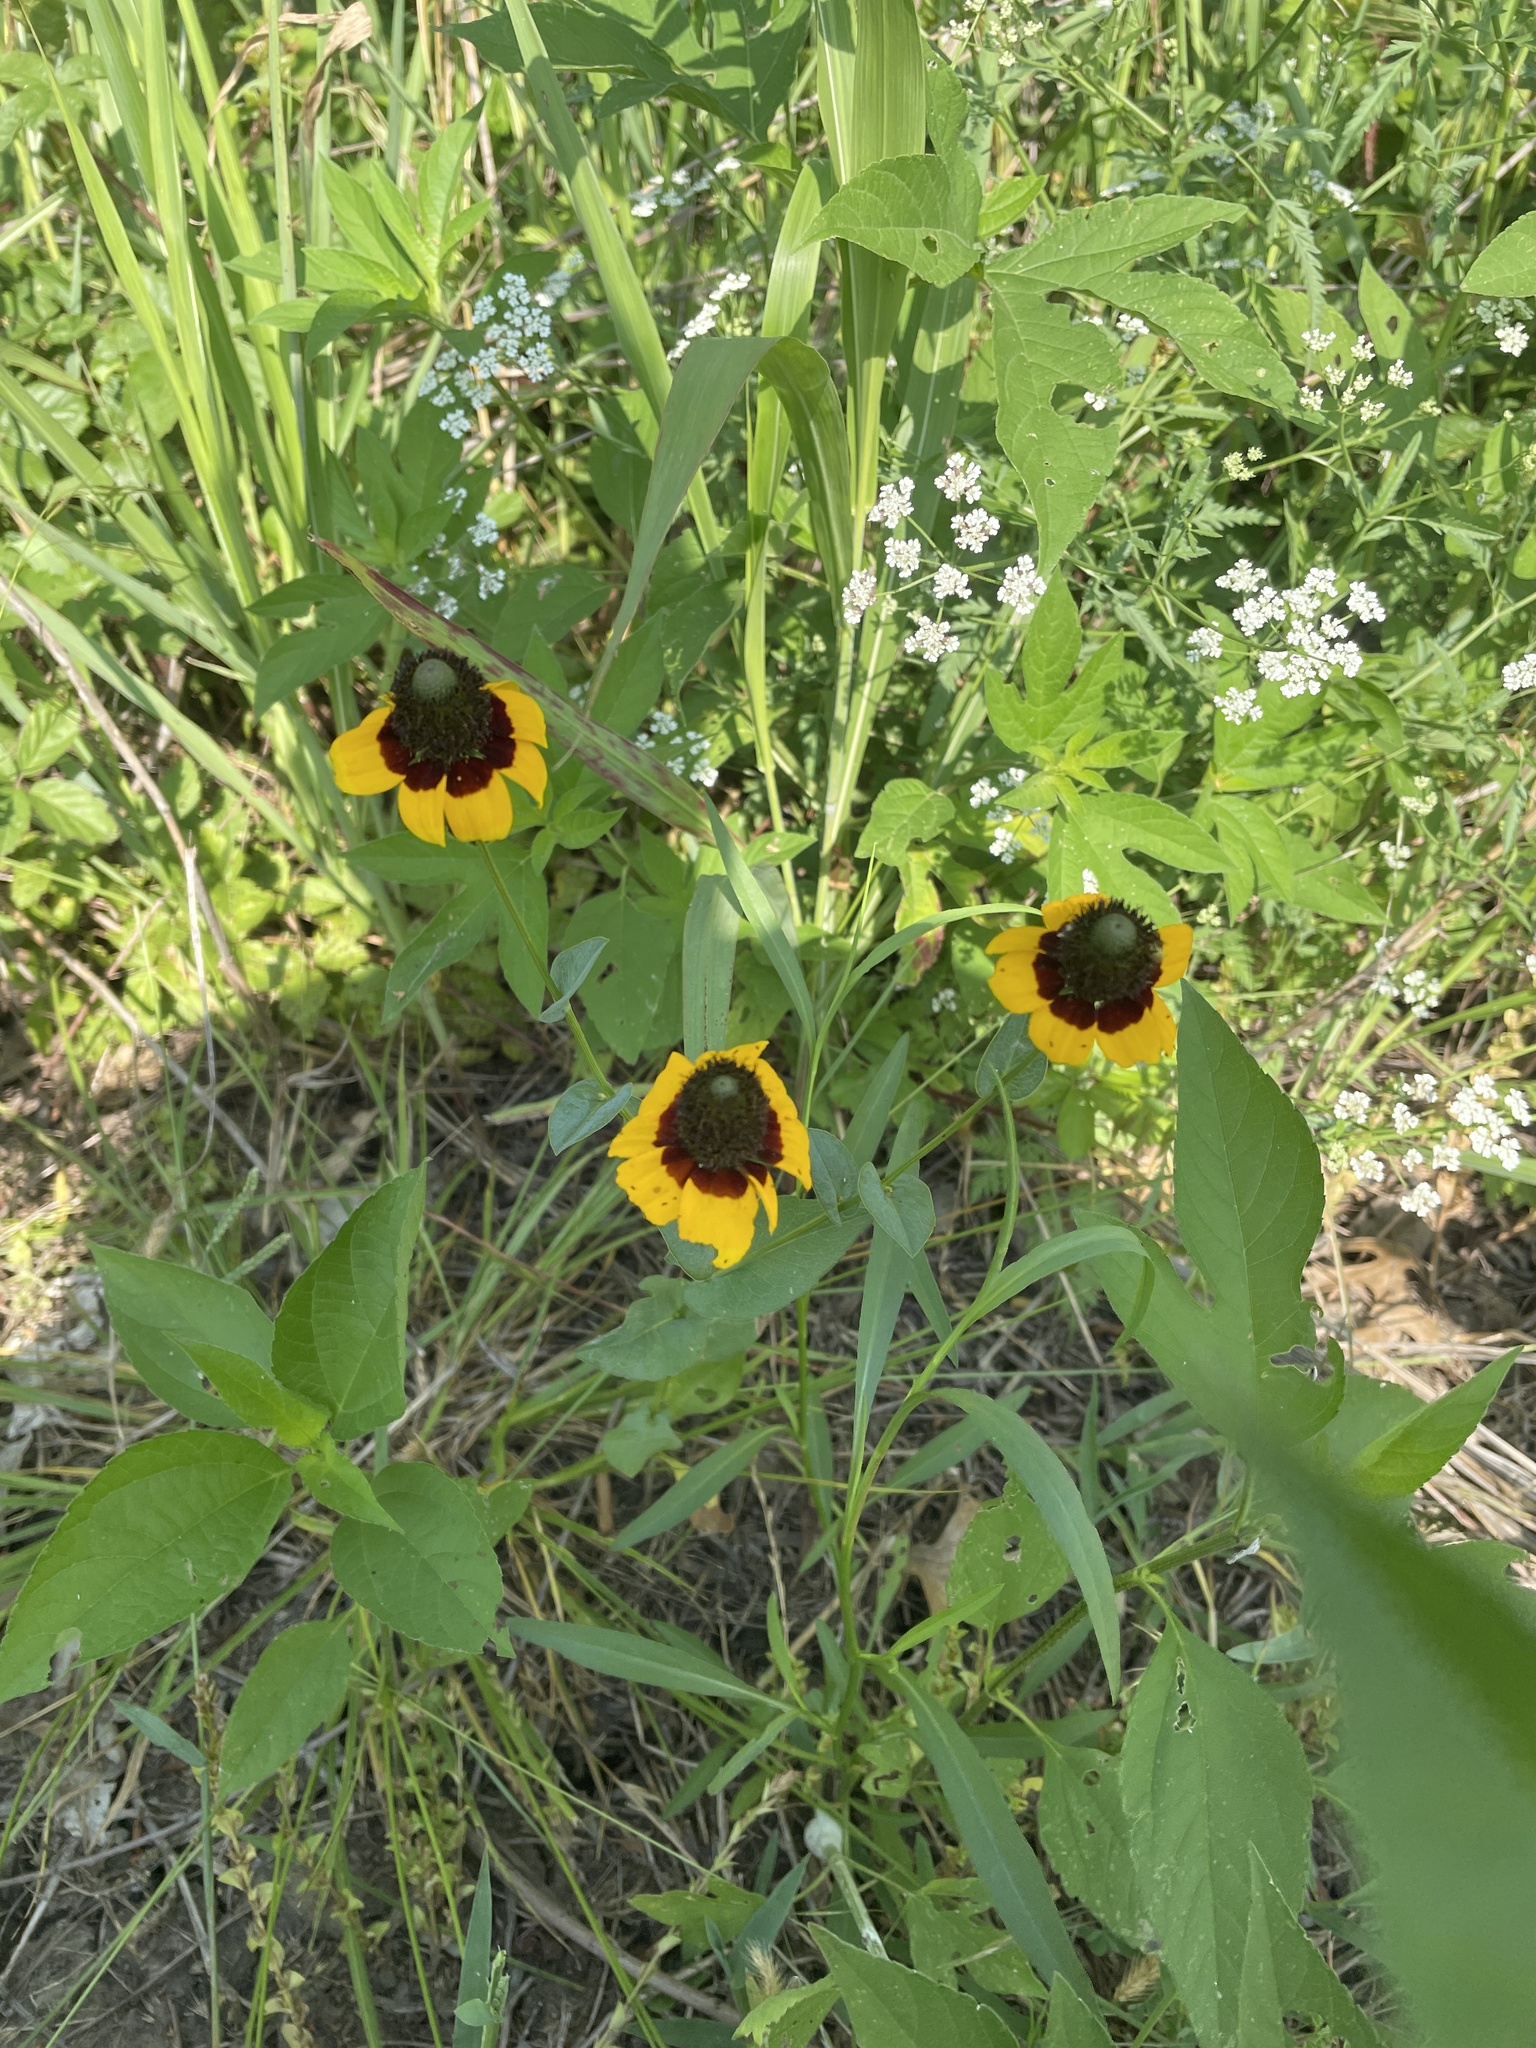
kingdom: Plantae
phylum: Tracheophyta
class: Magnoliopsida
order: Asterales
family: Asteraceae
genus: Rudbeckia
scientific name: Rudbeckia amplexicaulis
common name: Clasping-leaf coneflower
